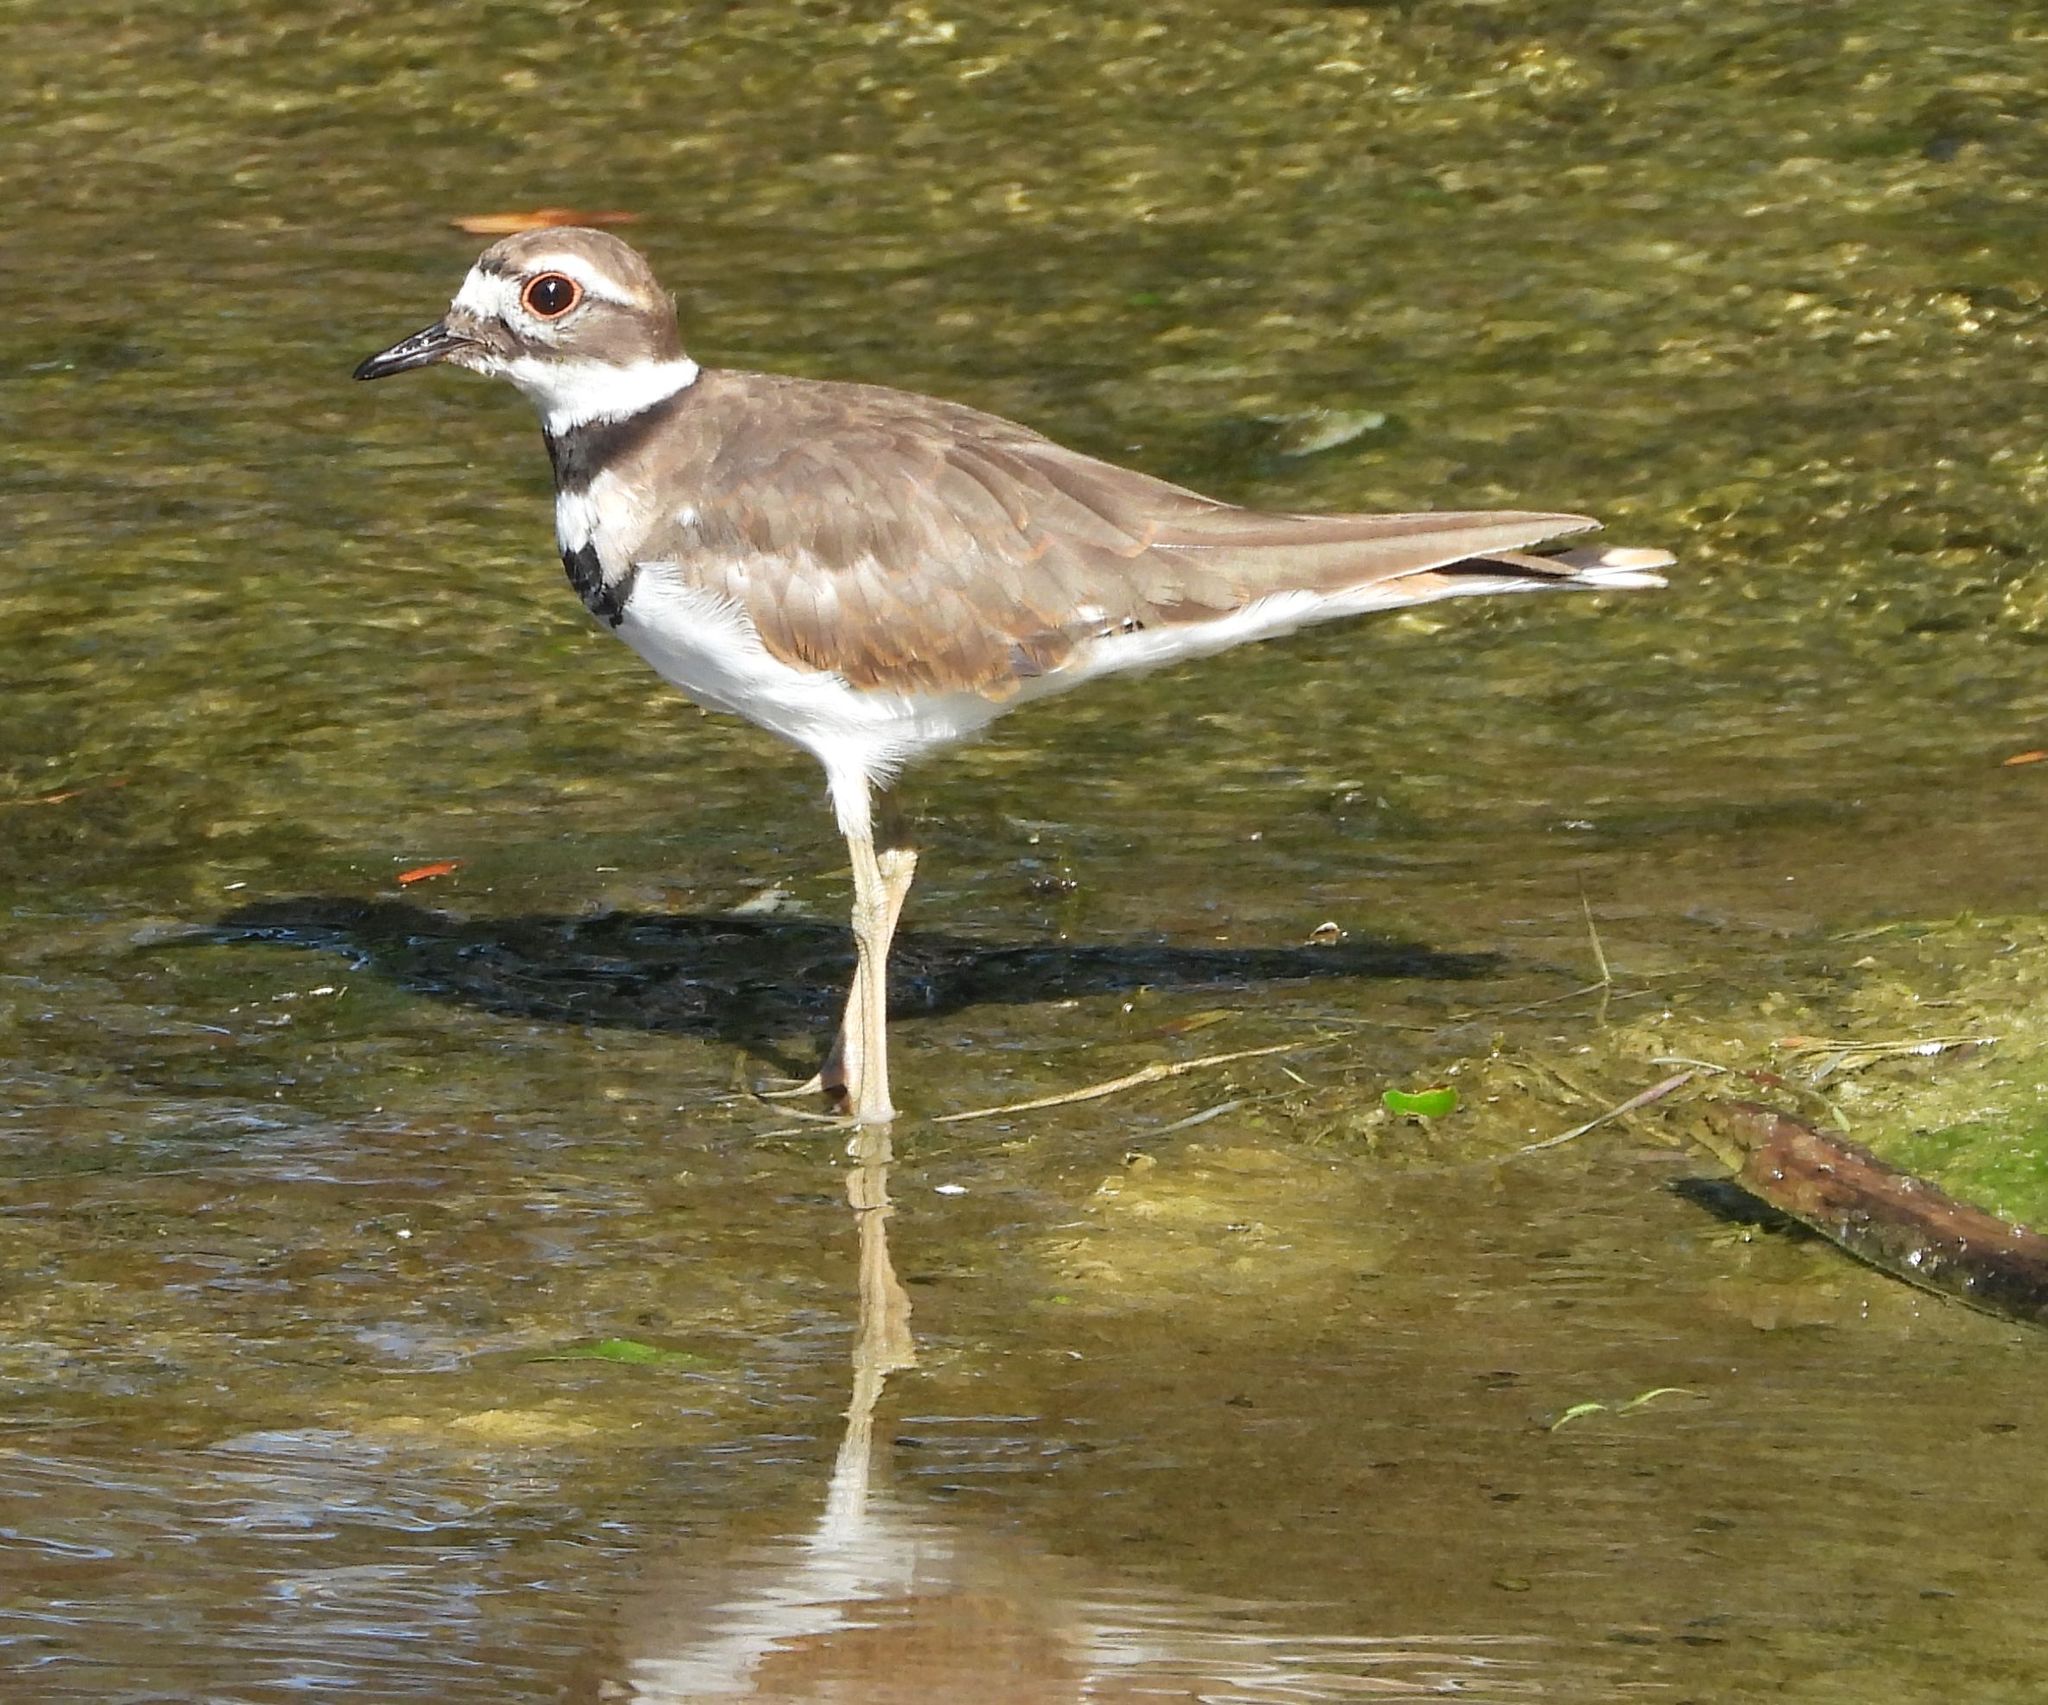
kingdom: Animalia
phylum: Chordata
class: Aves
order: Charadriiformes
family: Charadriidae
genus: Charadrius
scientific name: Charadrius vociferus
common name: Killdeer
